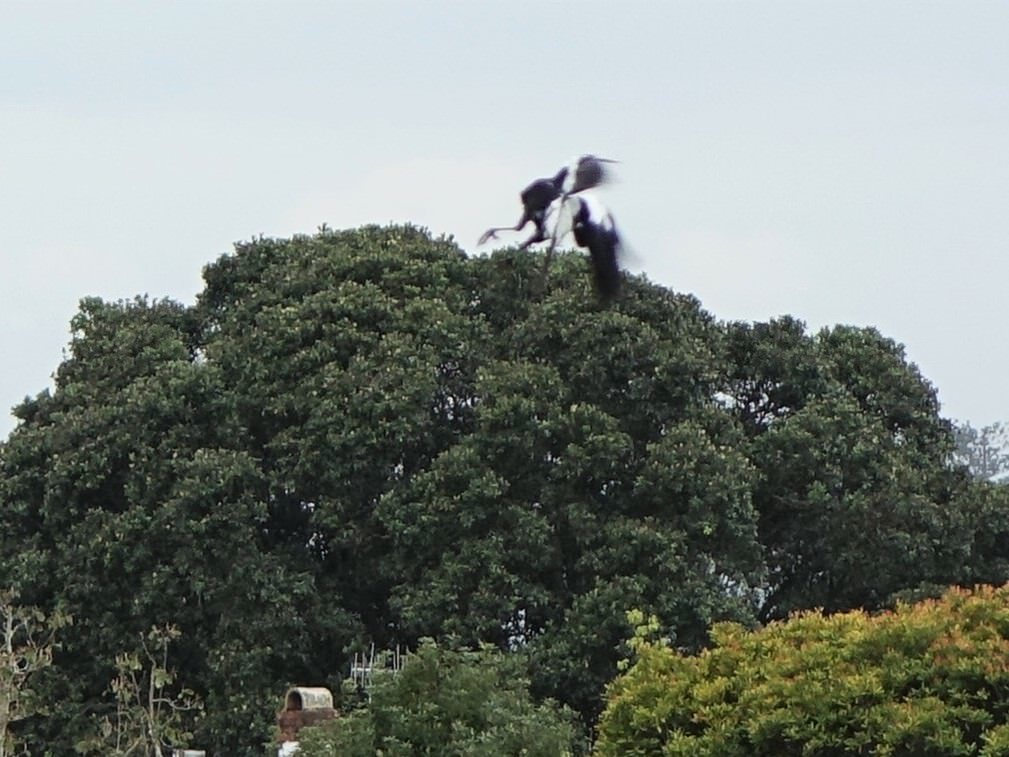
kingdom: Animalia
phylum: Chordata
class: Aves
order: Charadriiformes
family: Charadriidae
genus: Vanellus
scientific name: Vanellus miles
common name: Masked lapwing
